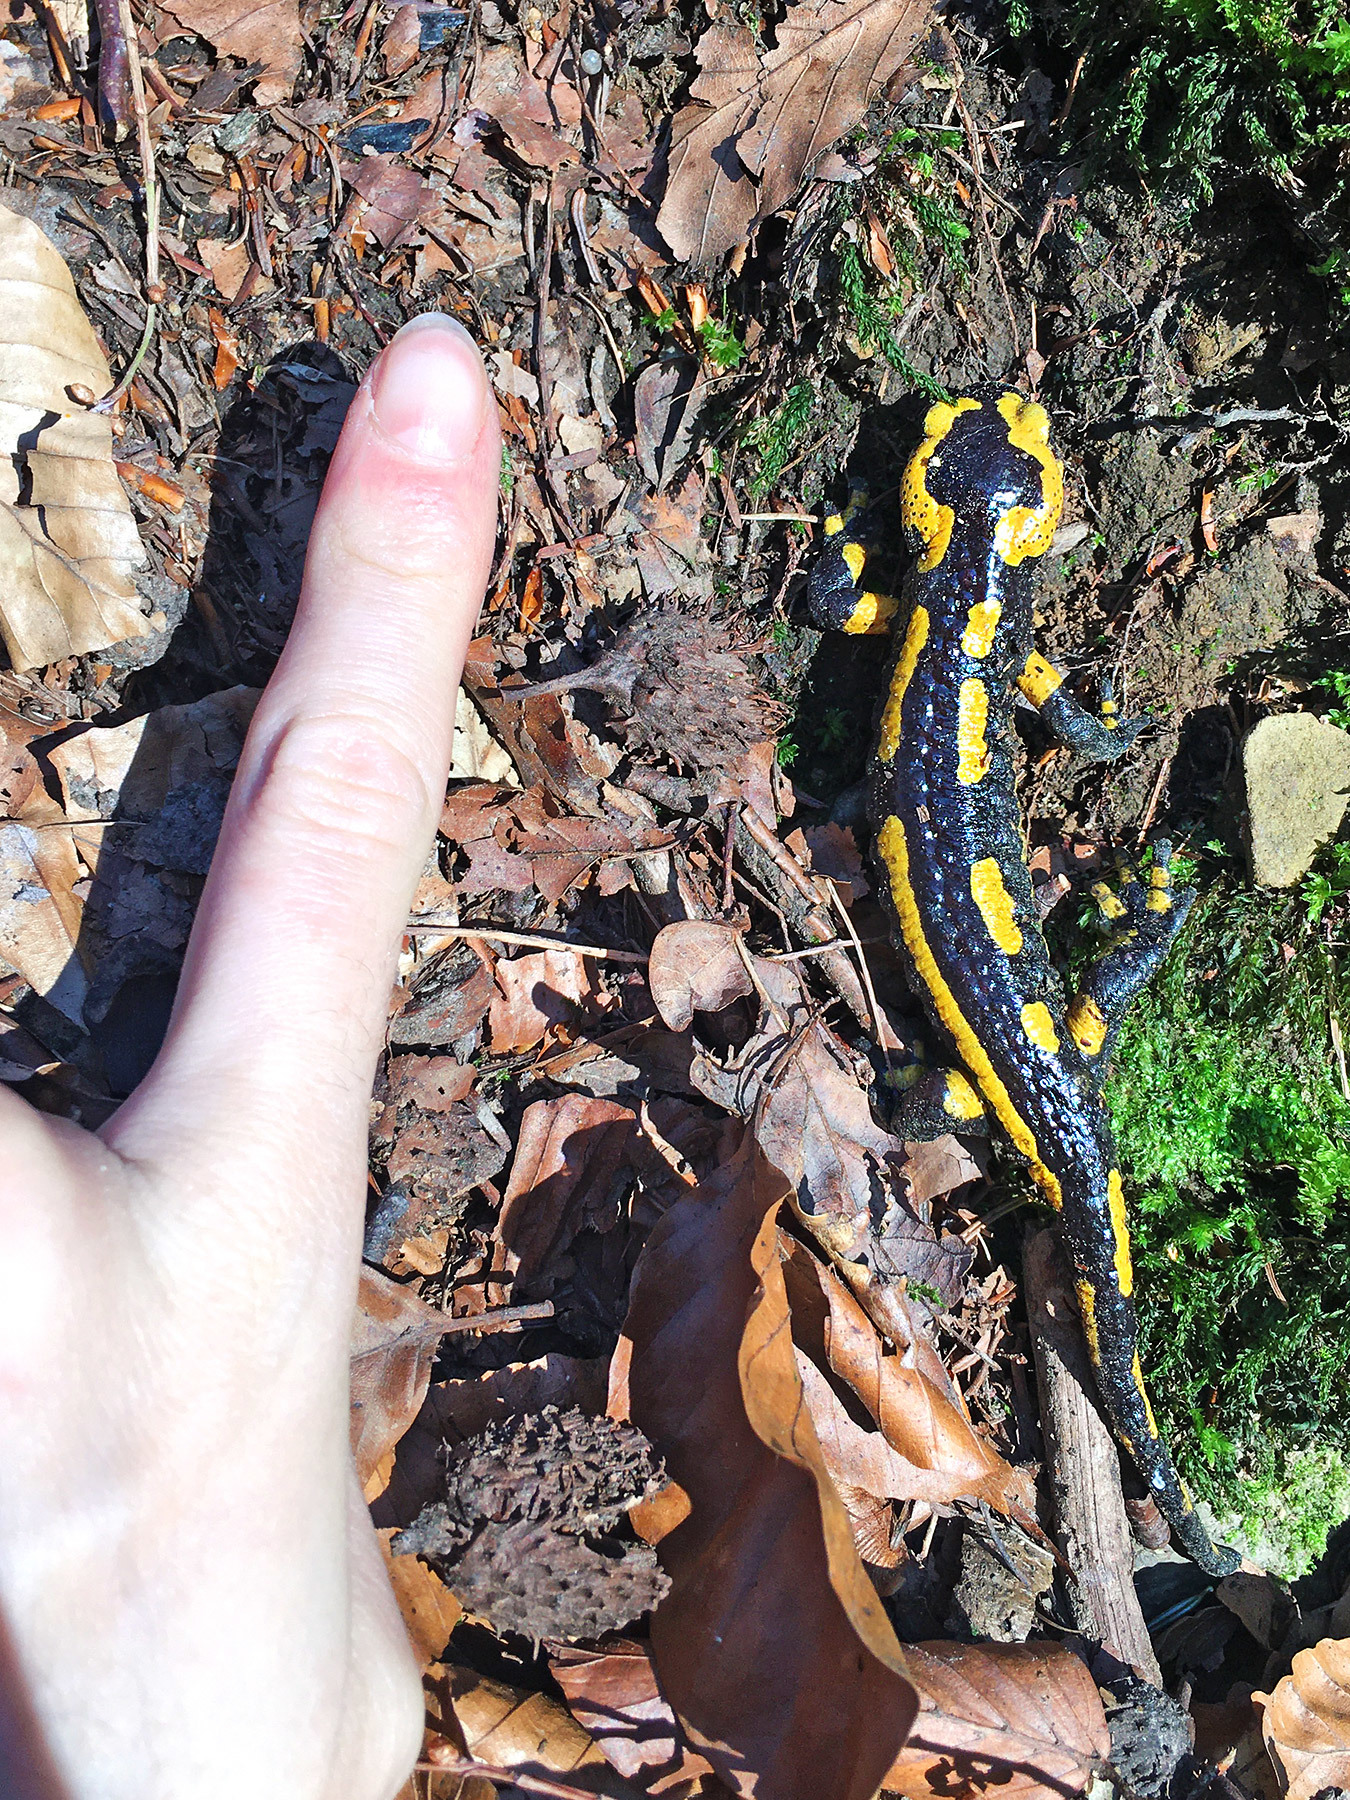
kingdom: Animalia
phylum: Chordata
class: Amphibia
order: Caudata
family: Salamandridae
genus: Salamandra
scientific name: Salamandra salamandra
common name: Fire salamander
